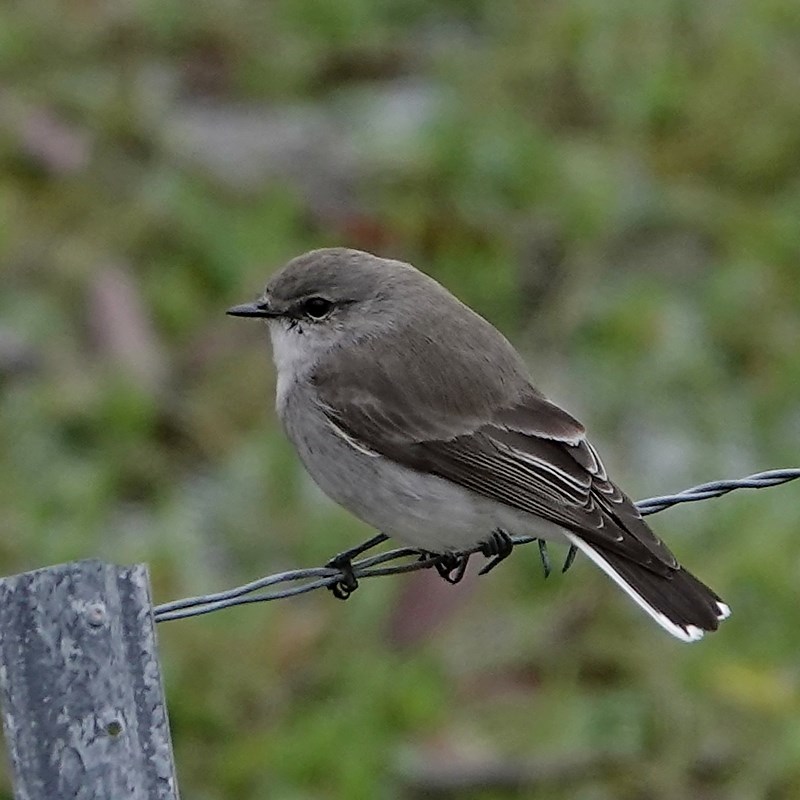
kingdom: Animalia
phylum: Chordata
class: Aves
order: Passeriformes
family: Petroicidae
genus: Microeca
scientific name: Microeca fascinans
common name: Jacky winter
